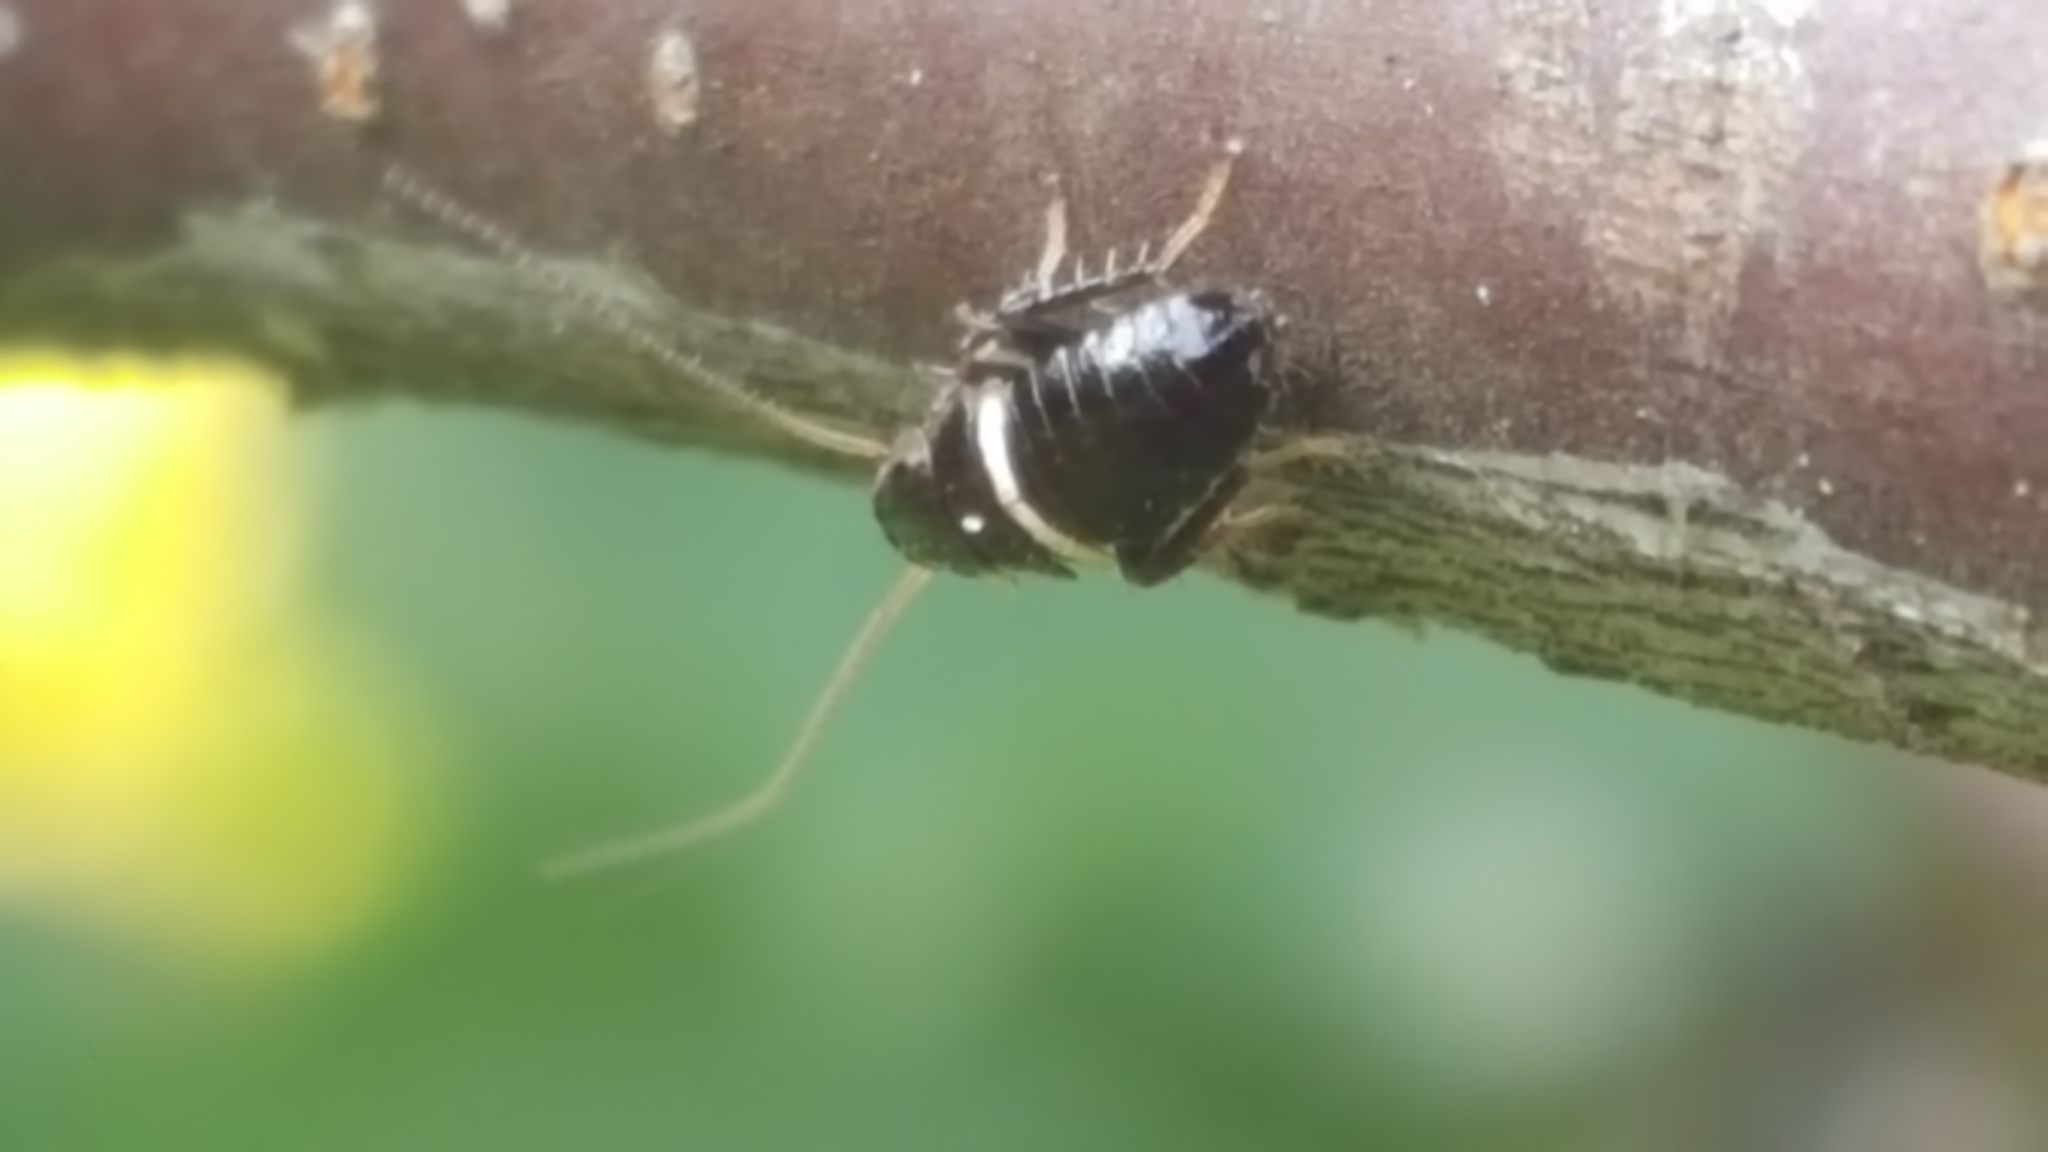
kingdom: Animalia
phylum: Arthropoda
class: Insecta
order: Blattodea
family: Ectobiidae
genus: Planuncus
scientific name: Planuncus vinzi
